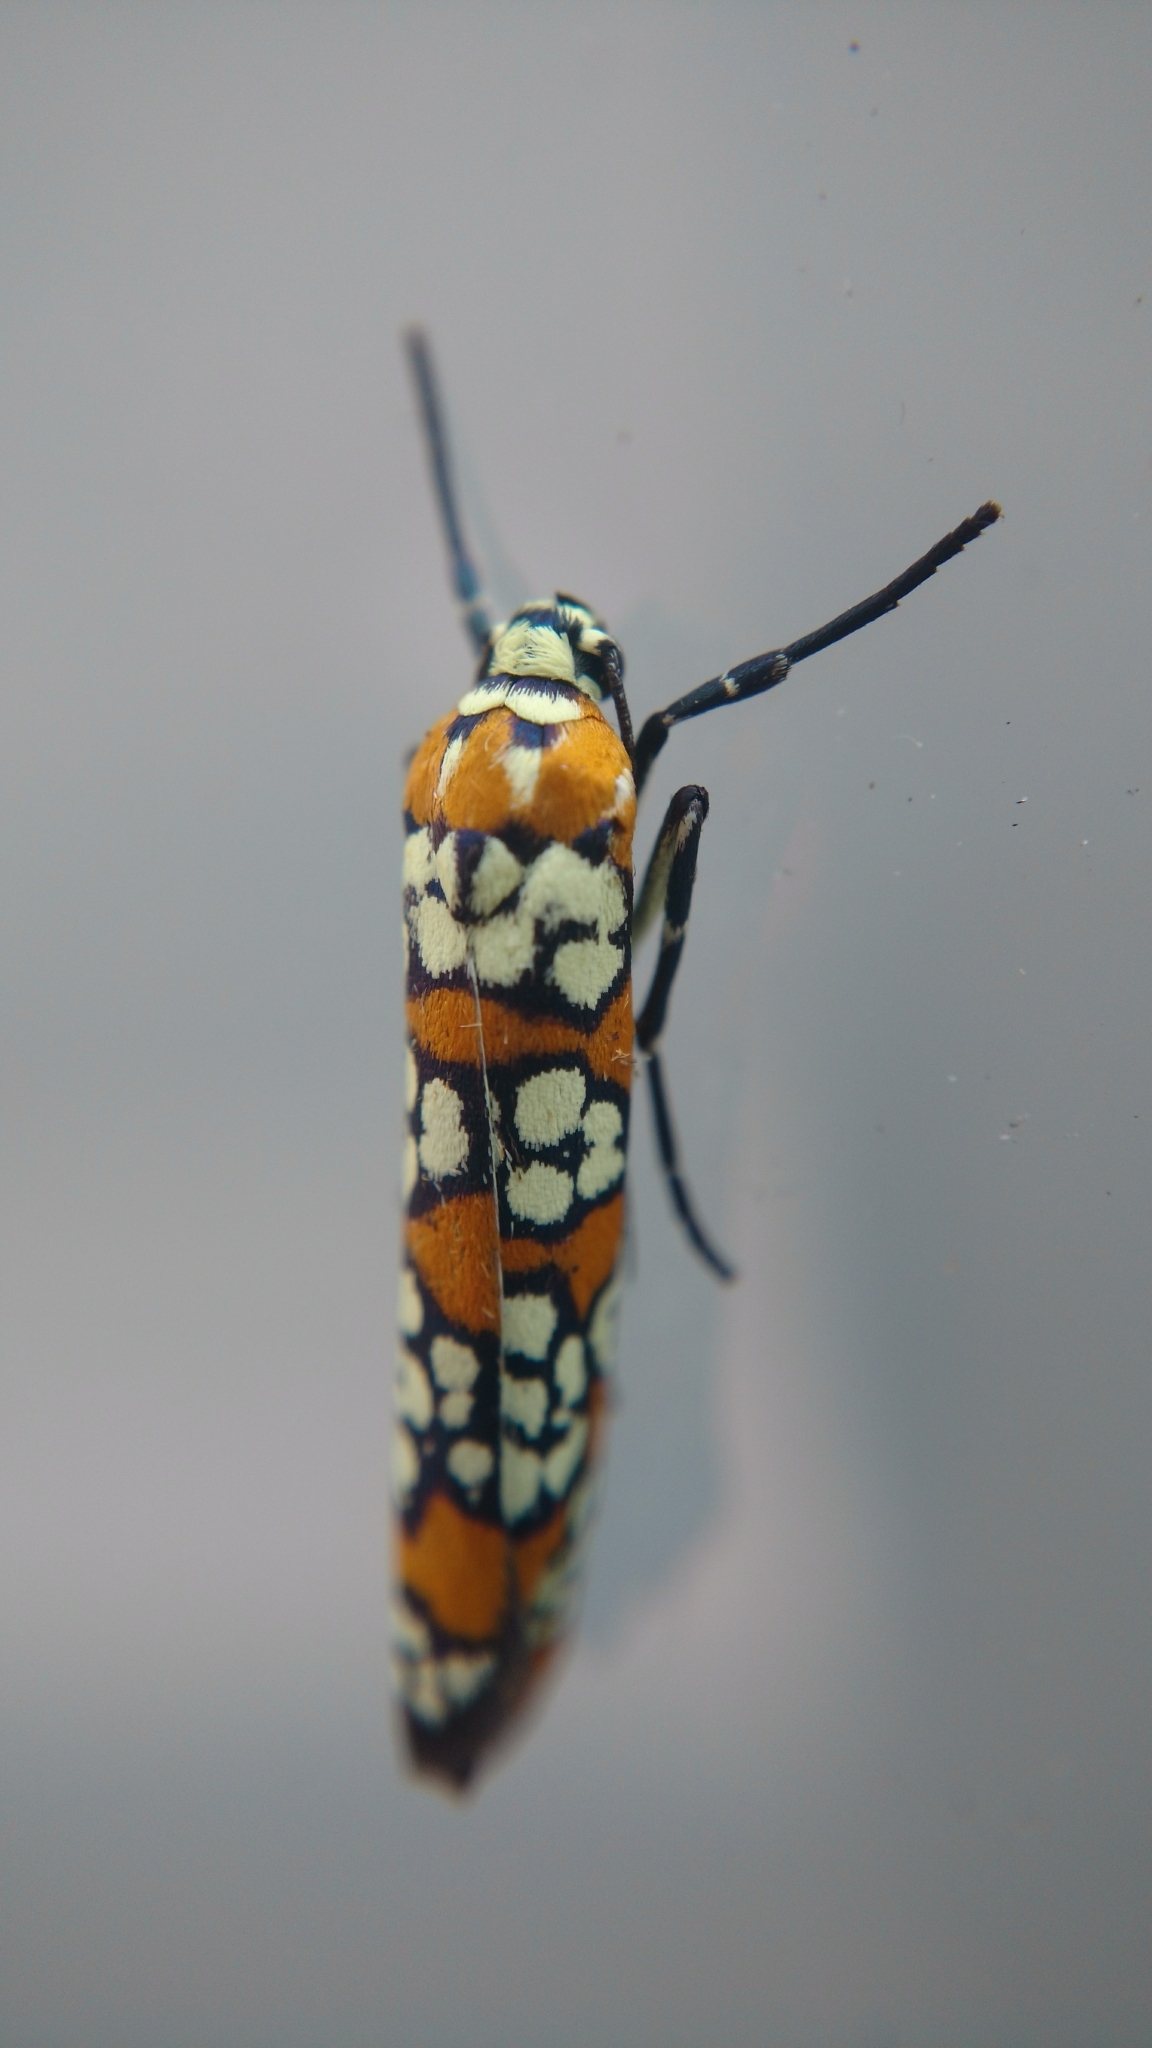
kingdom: Animalia
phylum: Arthropoda
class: Insecta
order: Lepidoptera
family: Attevidae
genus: Atteva
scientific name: Atteva punctella
